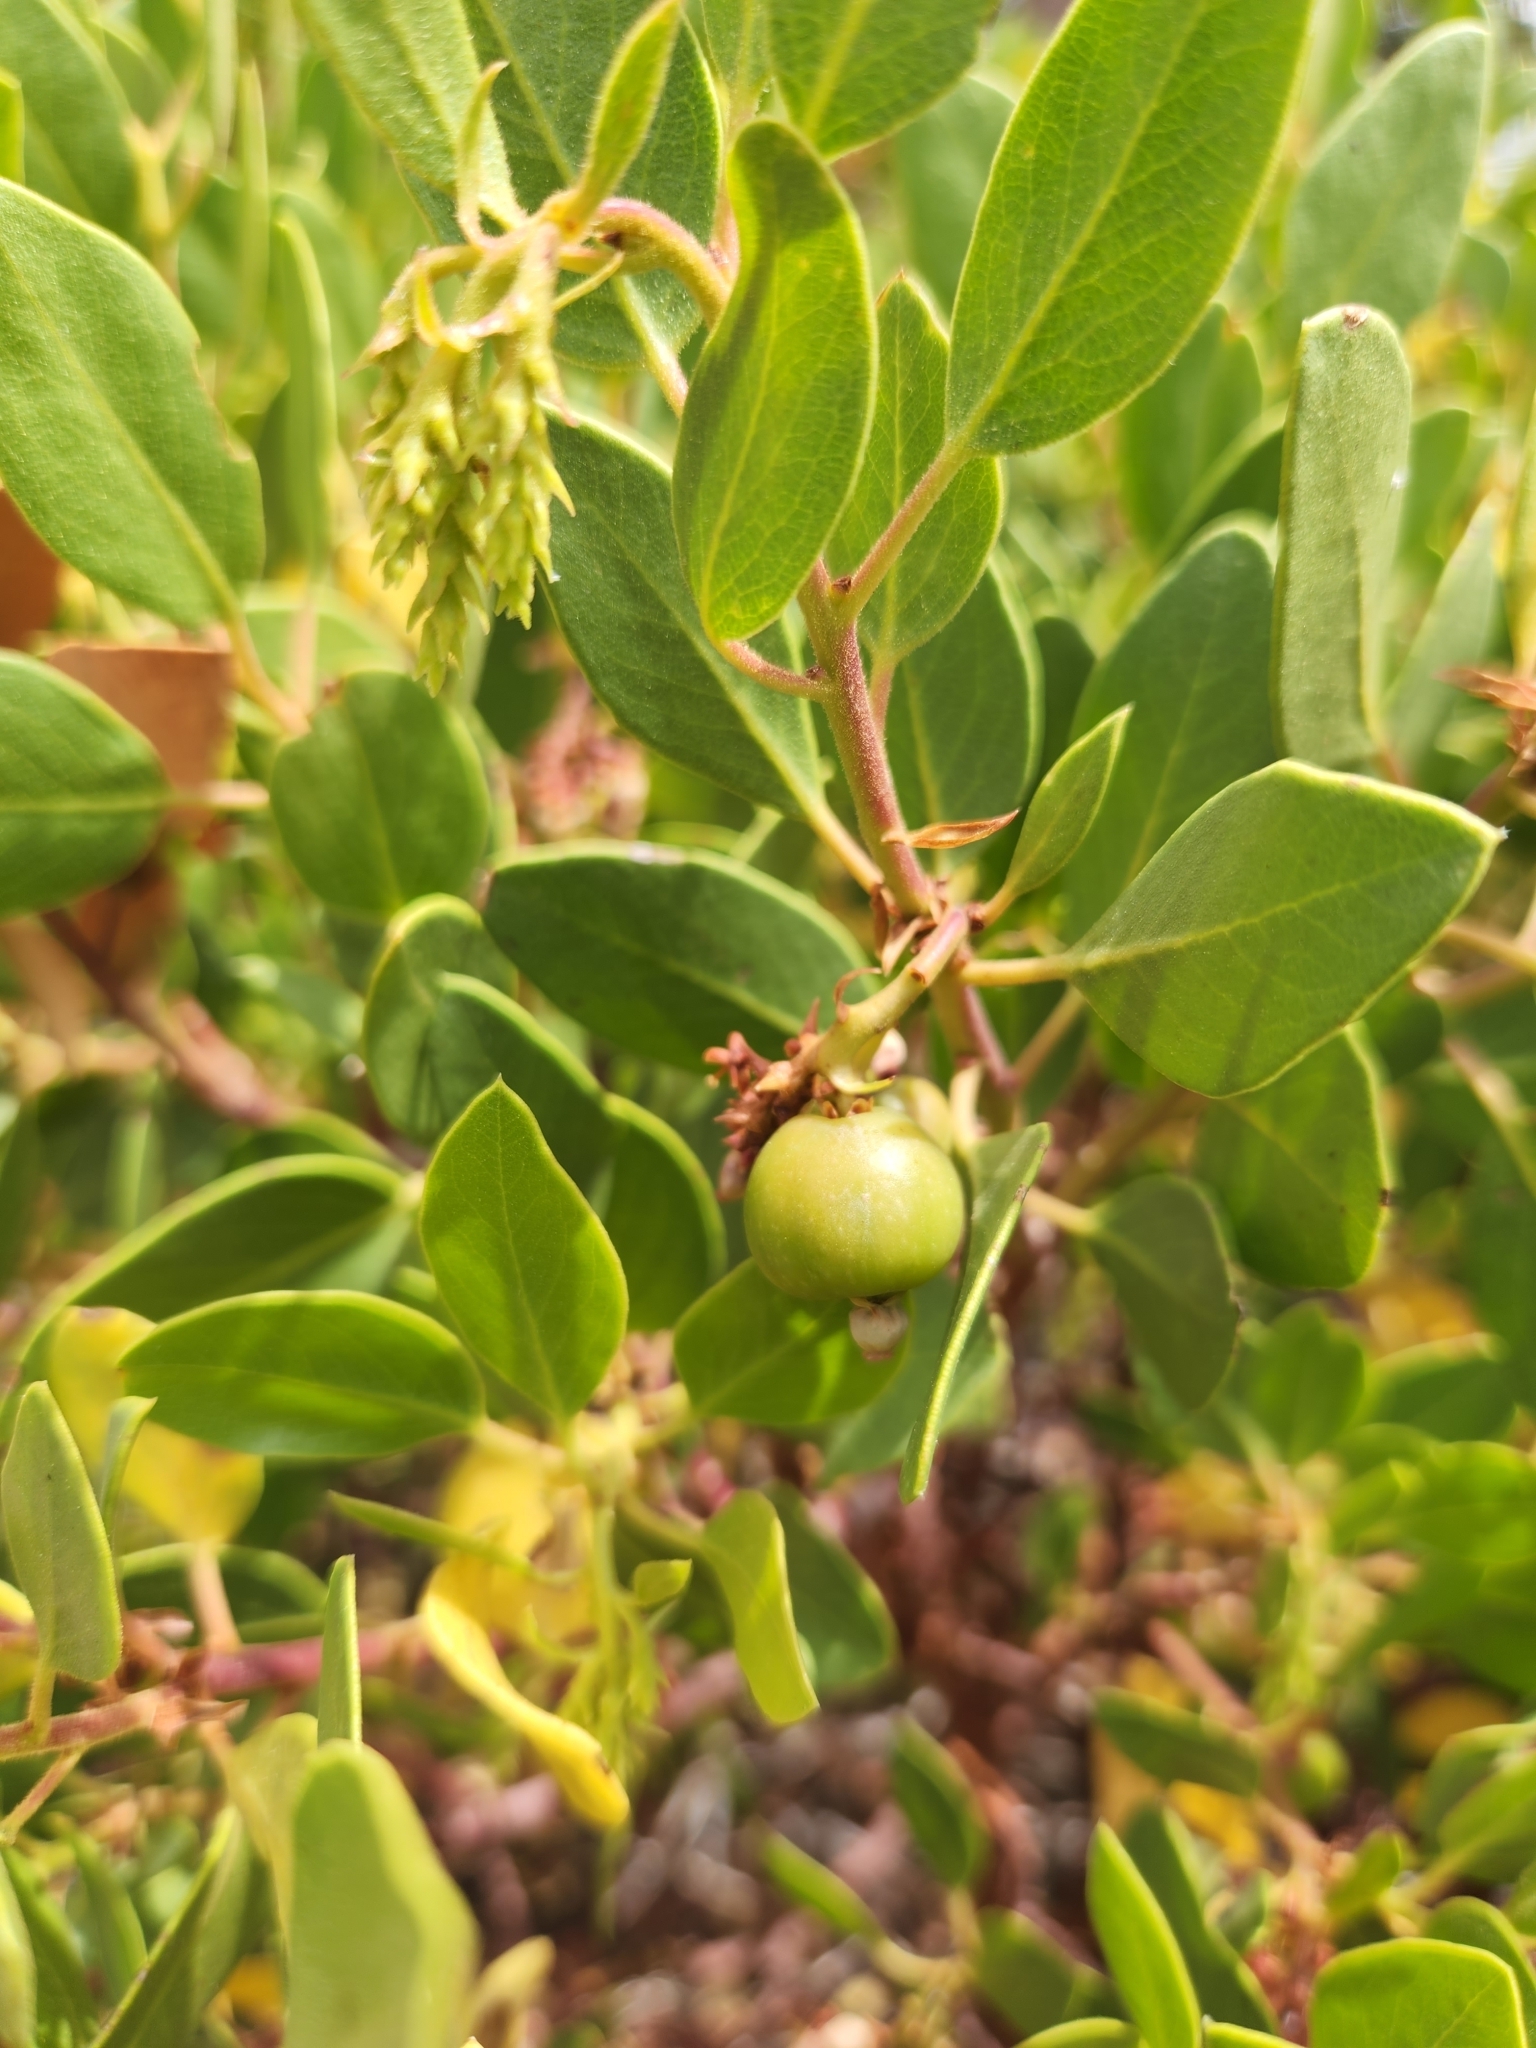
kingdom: Plantae
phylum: Tracheophyta
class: Magnoliopsida
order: Ericales
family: Ericaceae
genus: Arctostaphylos
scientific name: Arctostaphylos patula
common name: Green-leaf manzanita
